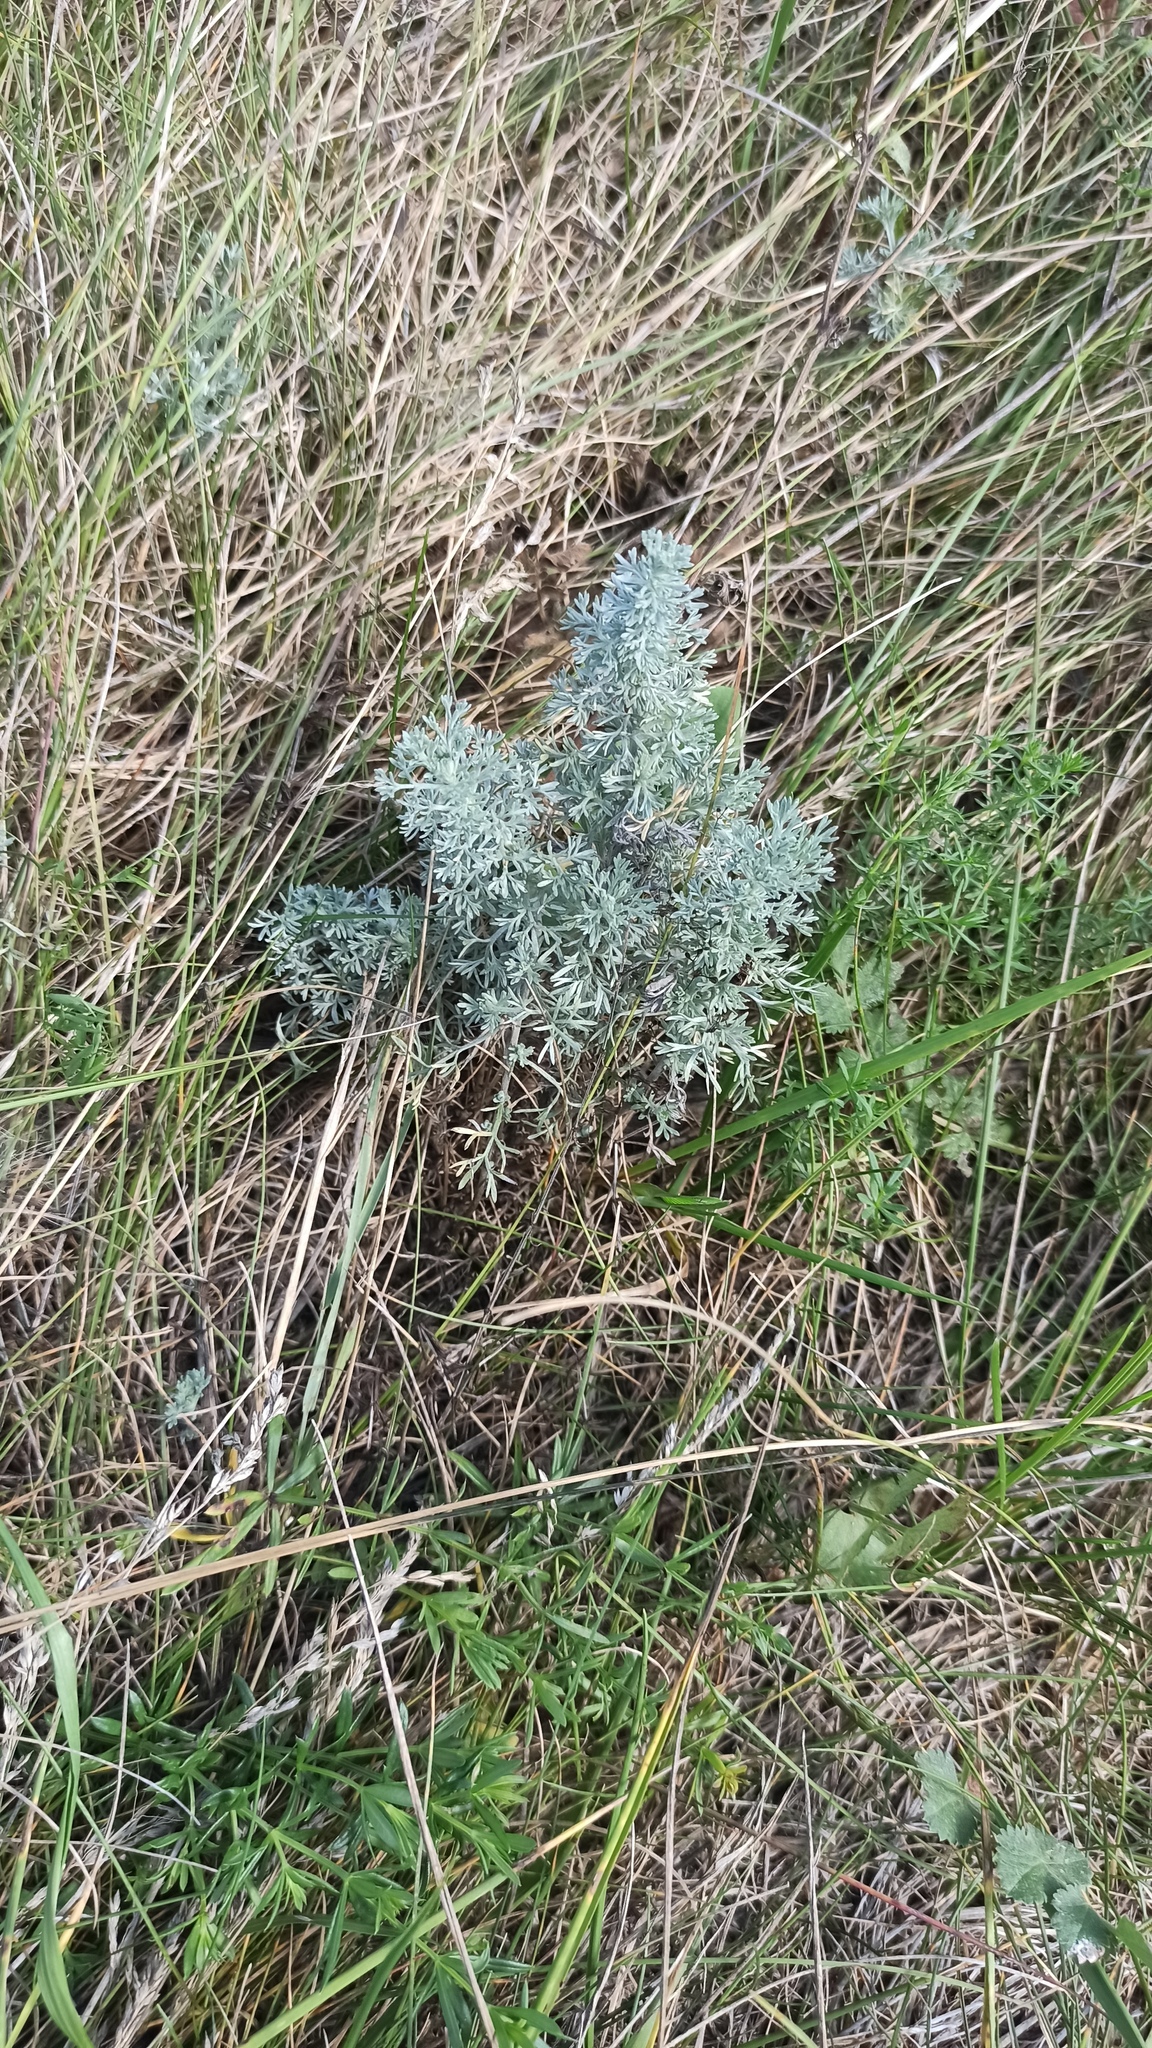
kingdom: Plantae
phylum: Tracheophyta
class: Magnoliopsida
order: Asterales
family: Asteraceae
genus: Artemisia
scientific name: Artemisia austriaca
